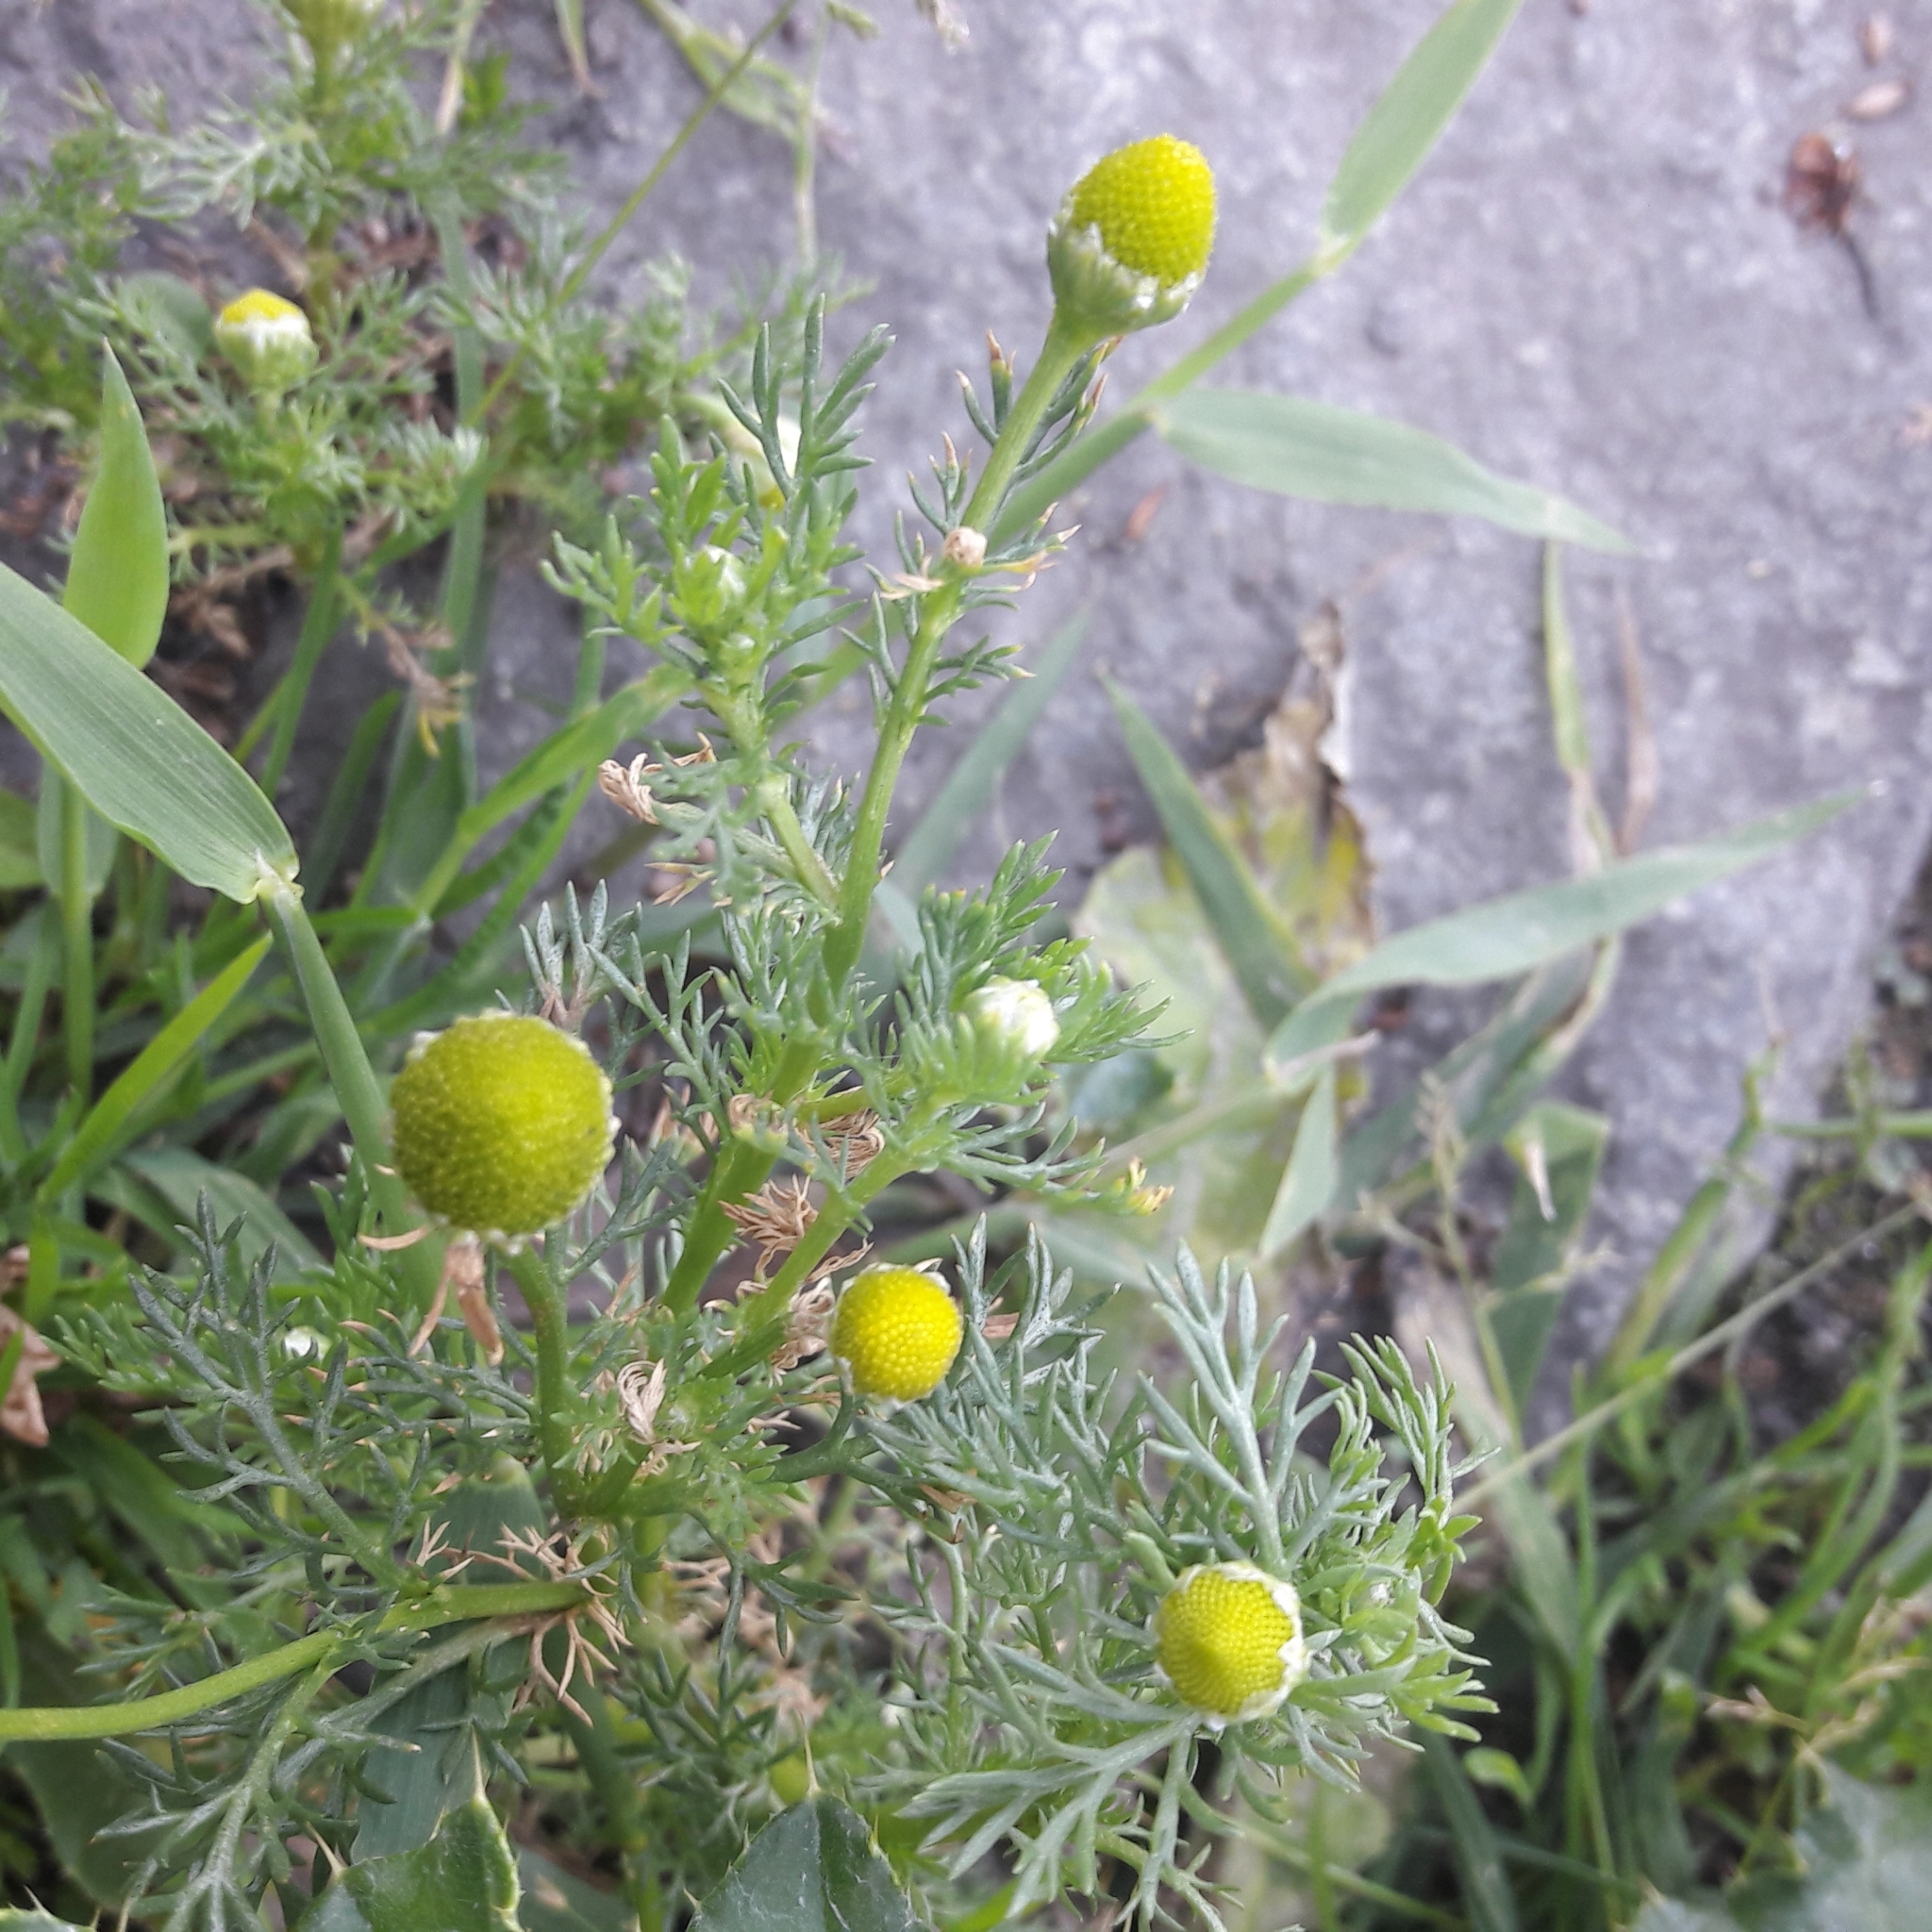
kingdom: Plantae
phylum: Tracheophyta
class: Magnoliopsida
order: Asterales
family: Asteraceae
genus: Matricaria
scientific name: Matricaria discoidea
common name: Disc mayweed
